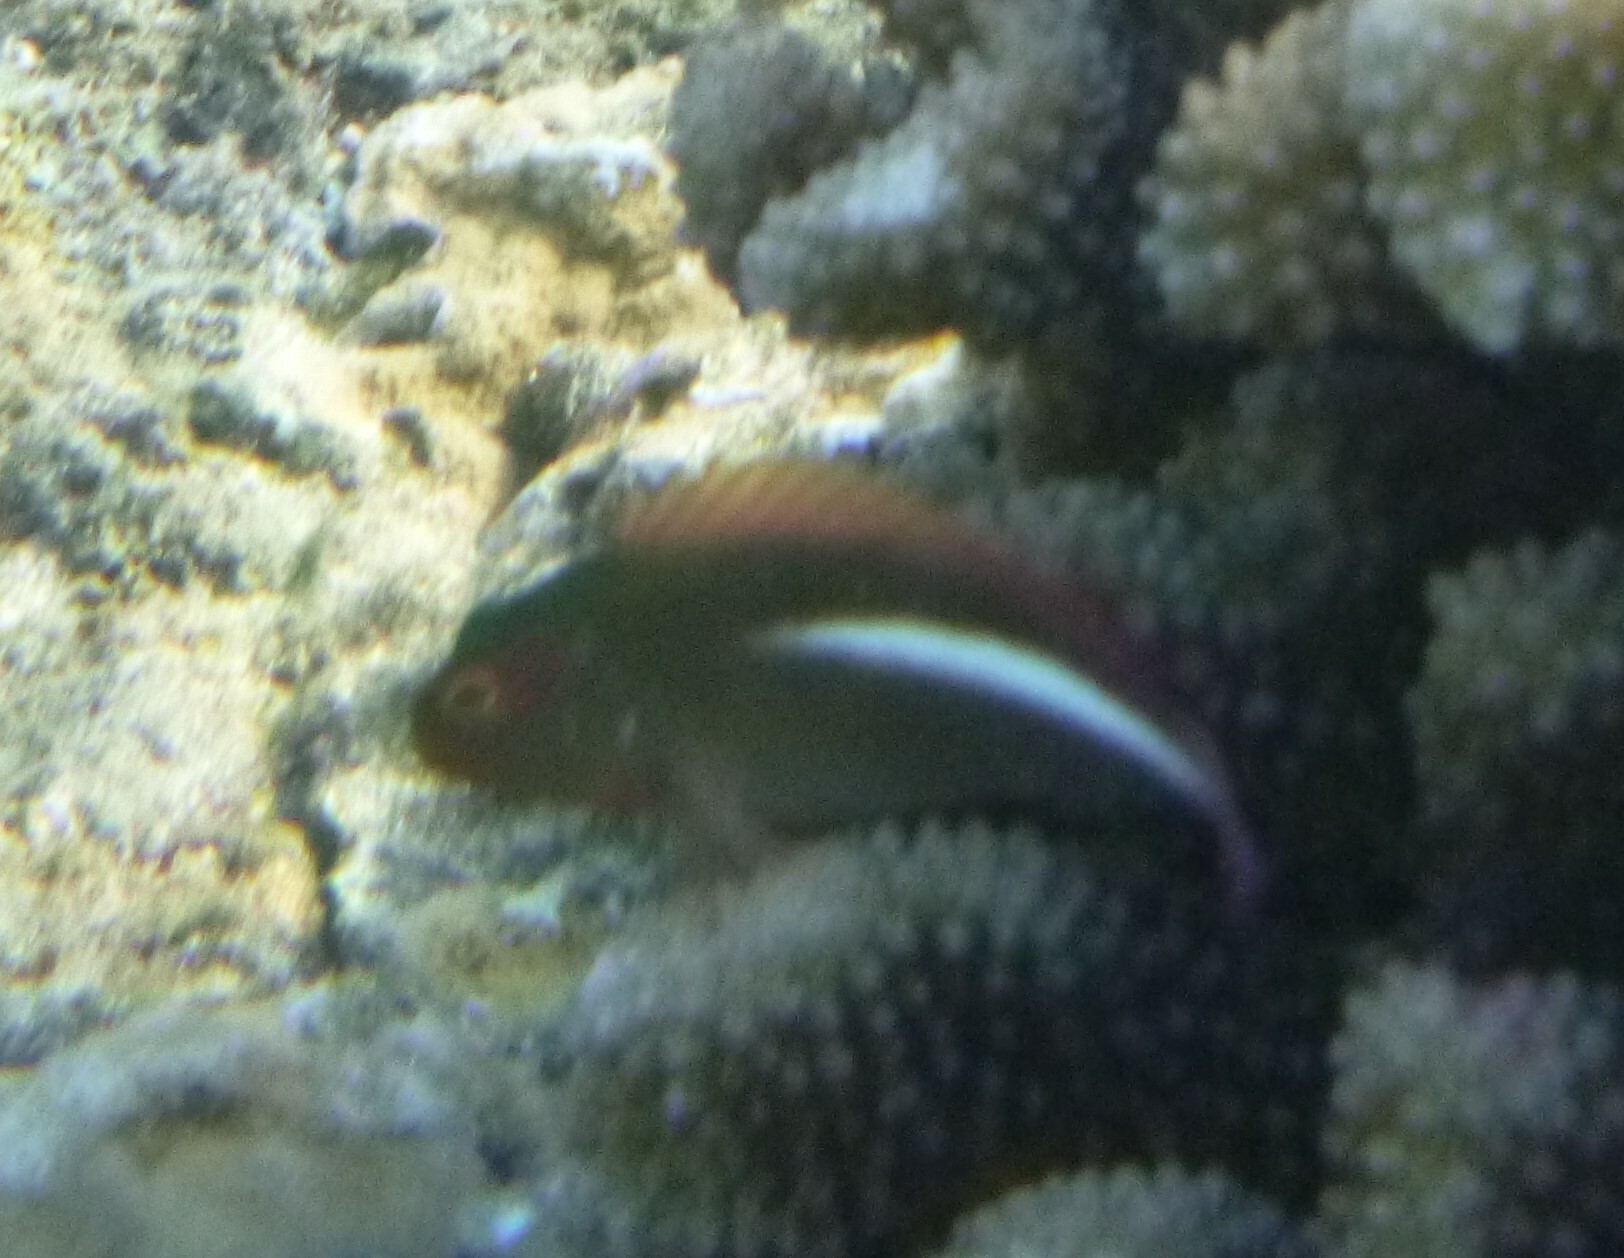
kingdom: Animalia
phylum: Chordata
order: Perciformes
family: Cirrhitidae
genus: Paracirrhites
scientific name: Paracirrhites arcatus
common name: Arc-eye hawkfish
